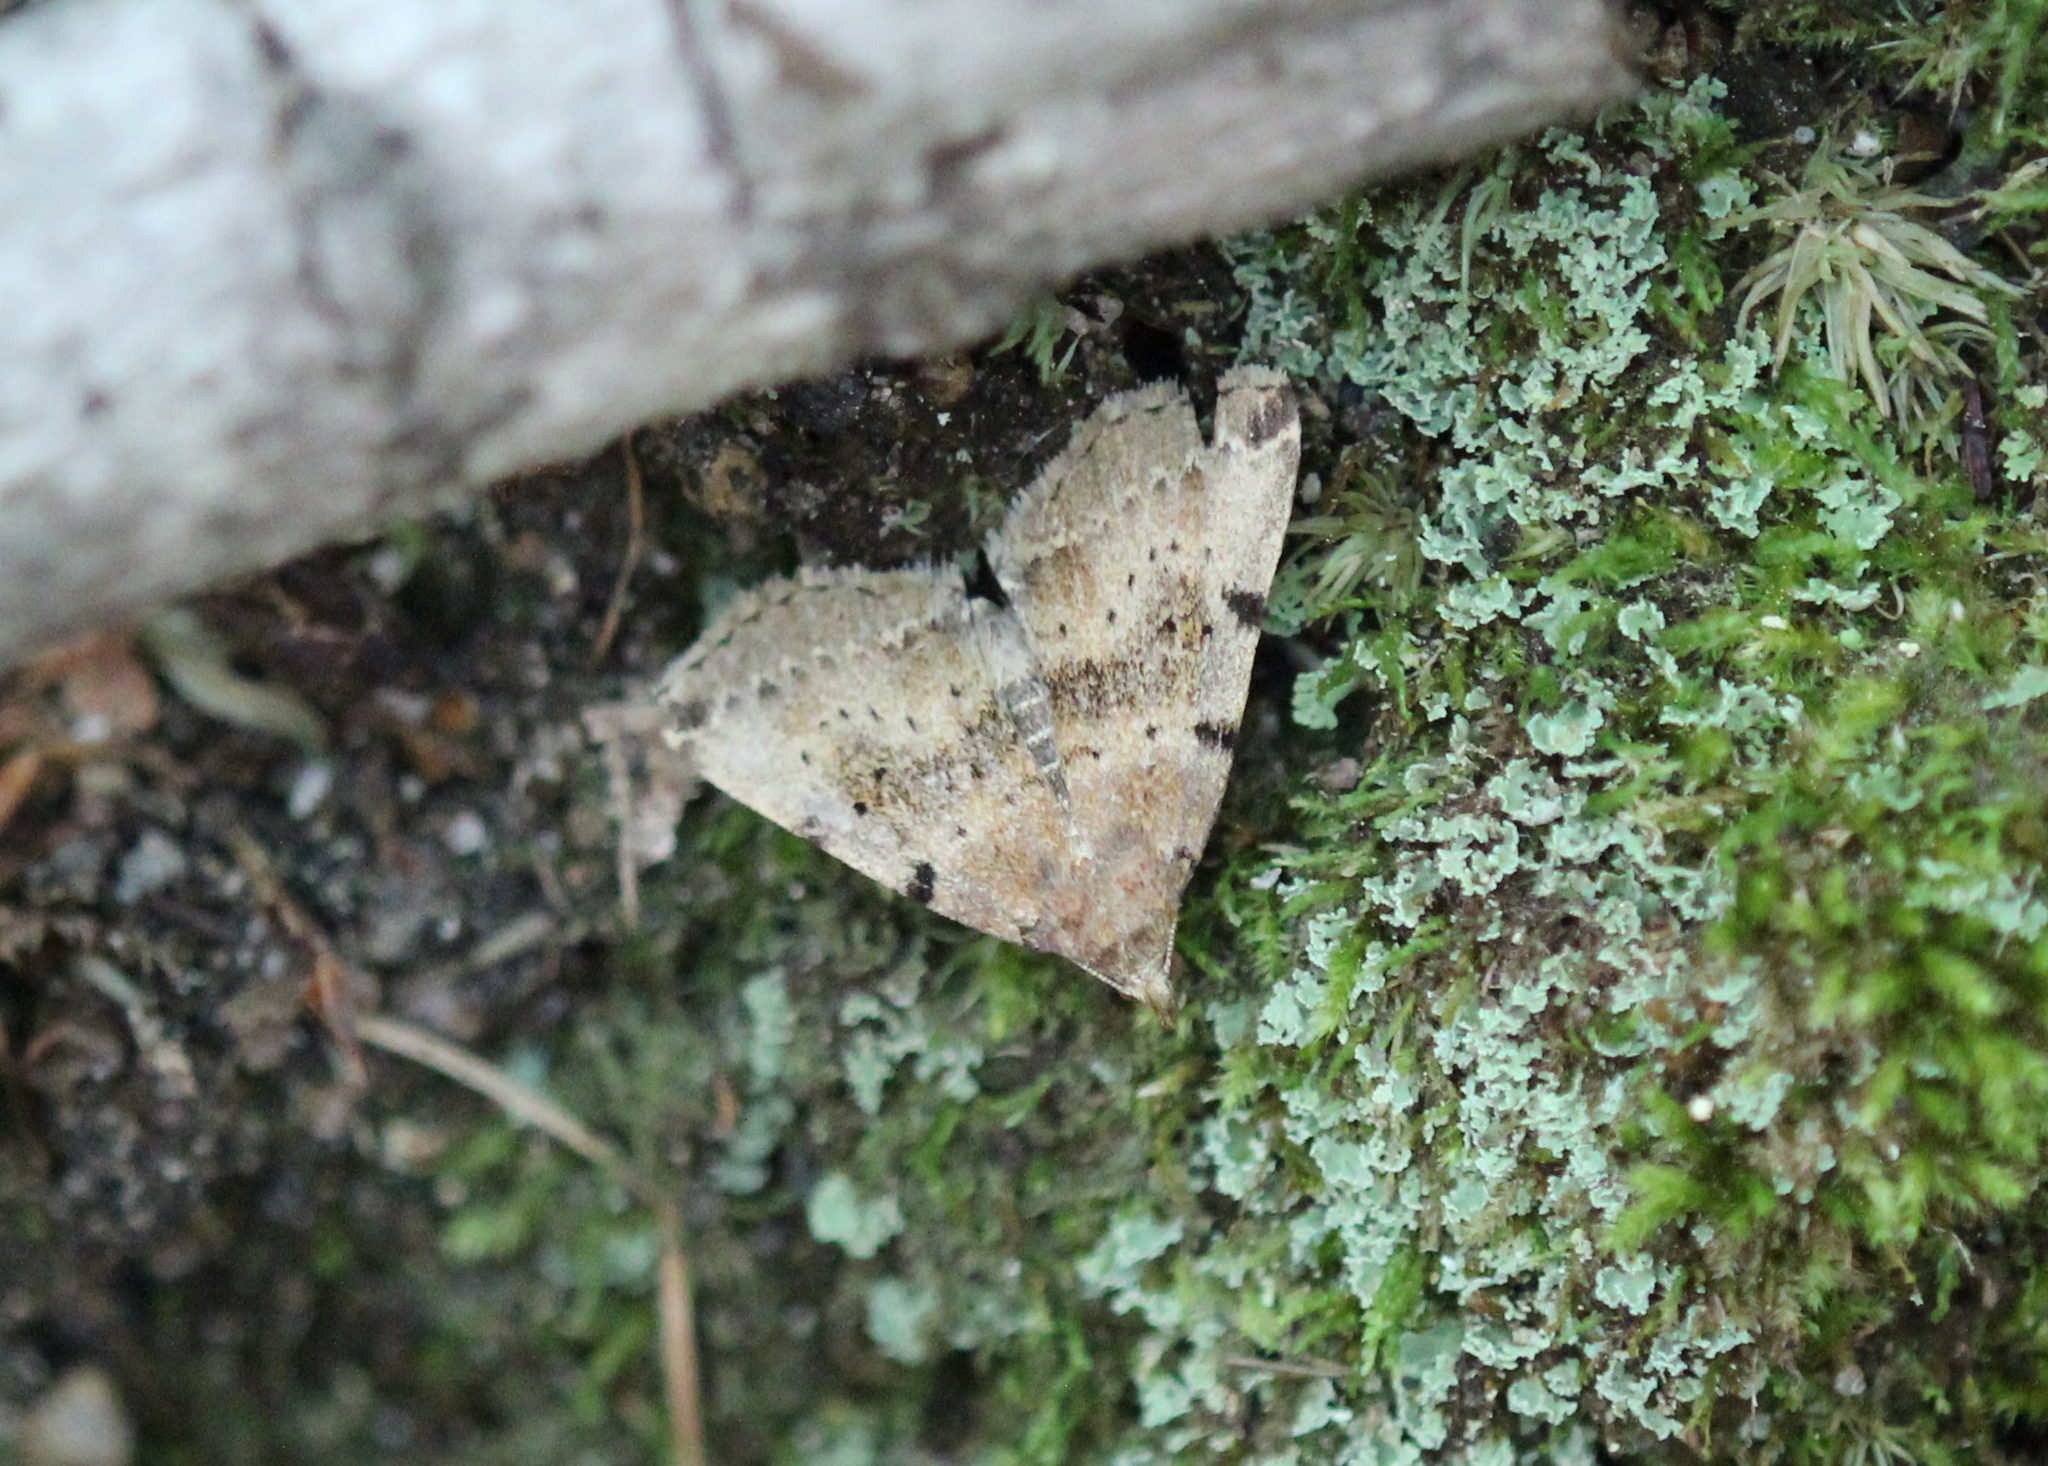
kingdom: Animalia
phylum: Arthropoda
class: Insecta
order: Lepidoptera
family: Erebidae
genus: Zanclognatha
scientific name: Zanclognatha lituralis
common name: Lettered fan-foot
